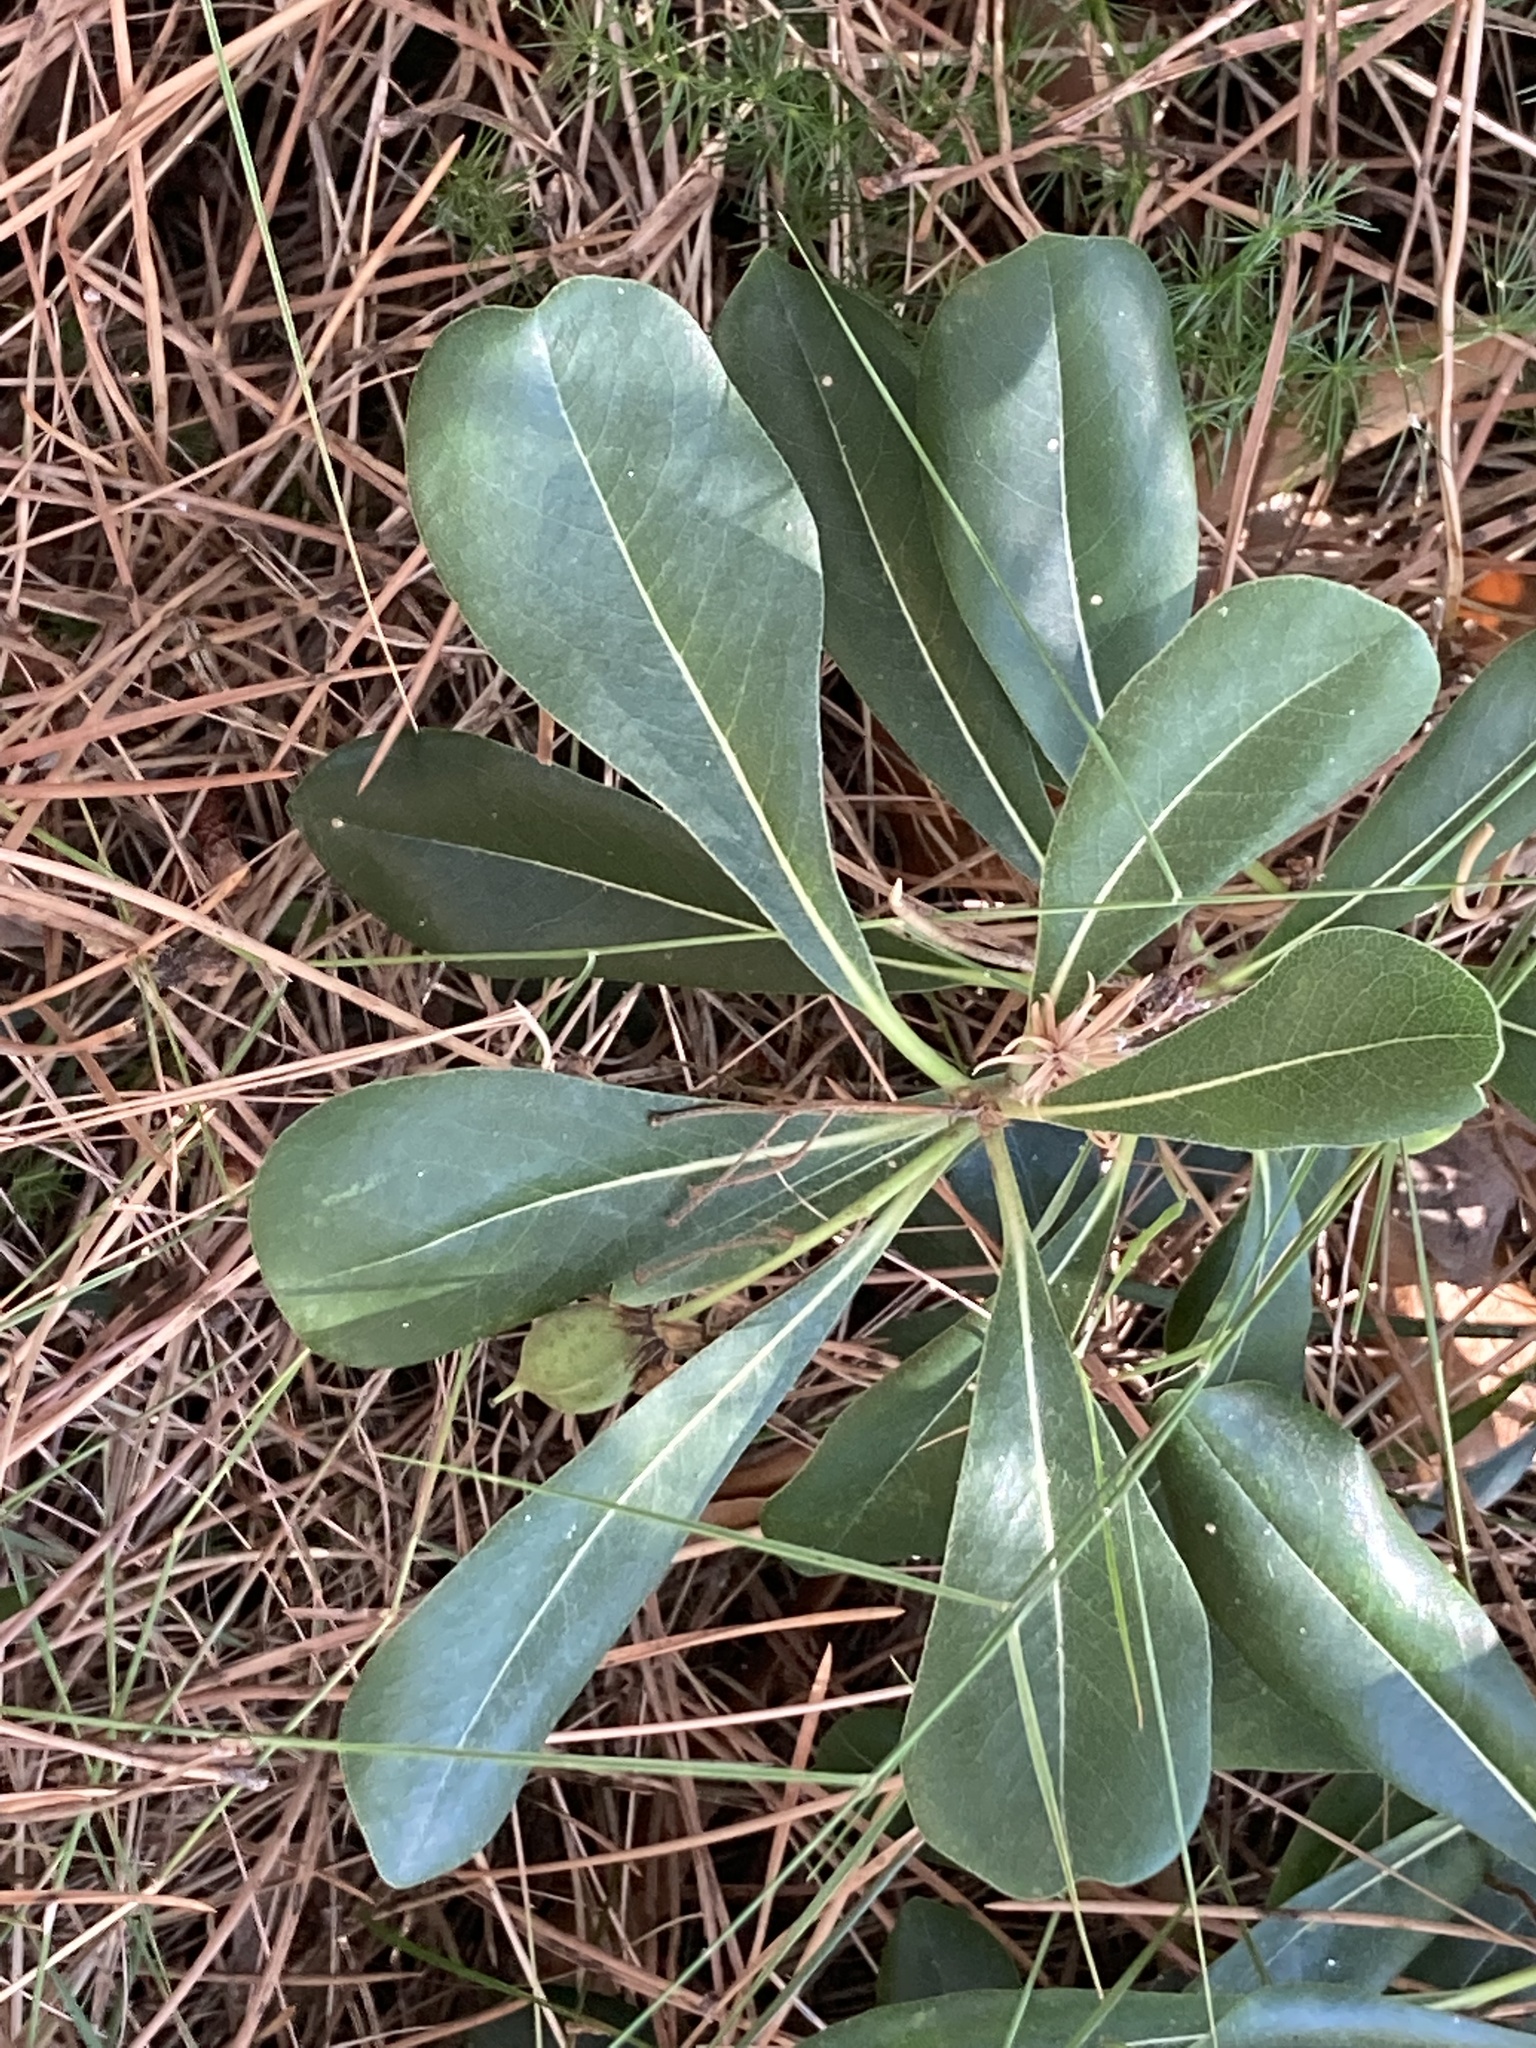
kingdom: Plantae
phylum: Tracheophyta
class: Magnoliopsida
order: Apiales
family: Pittosporaceae
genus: Pittosporum
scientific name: Pittosporum tobira
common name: Japanese cheesewood
